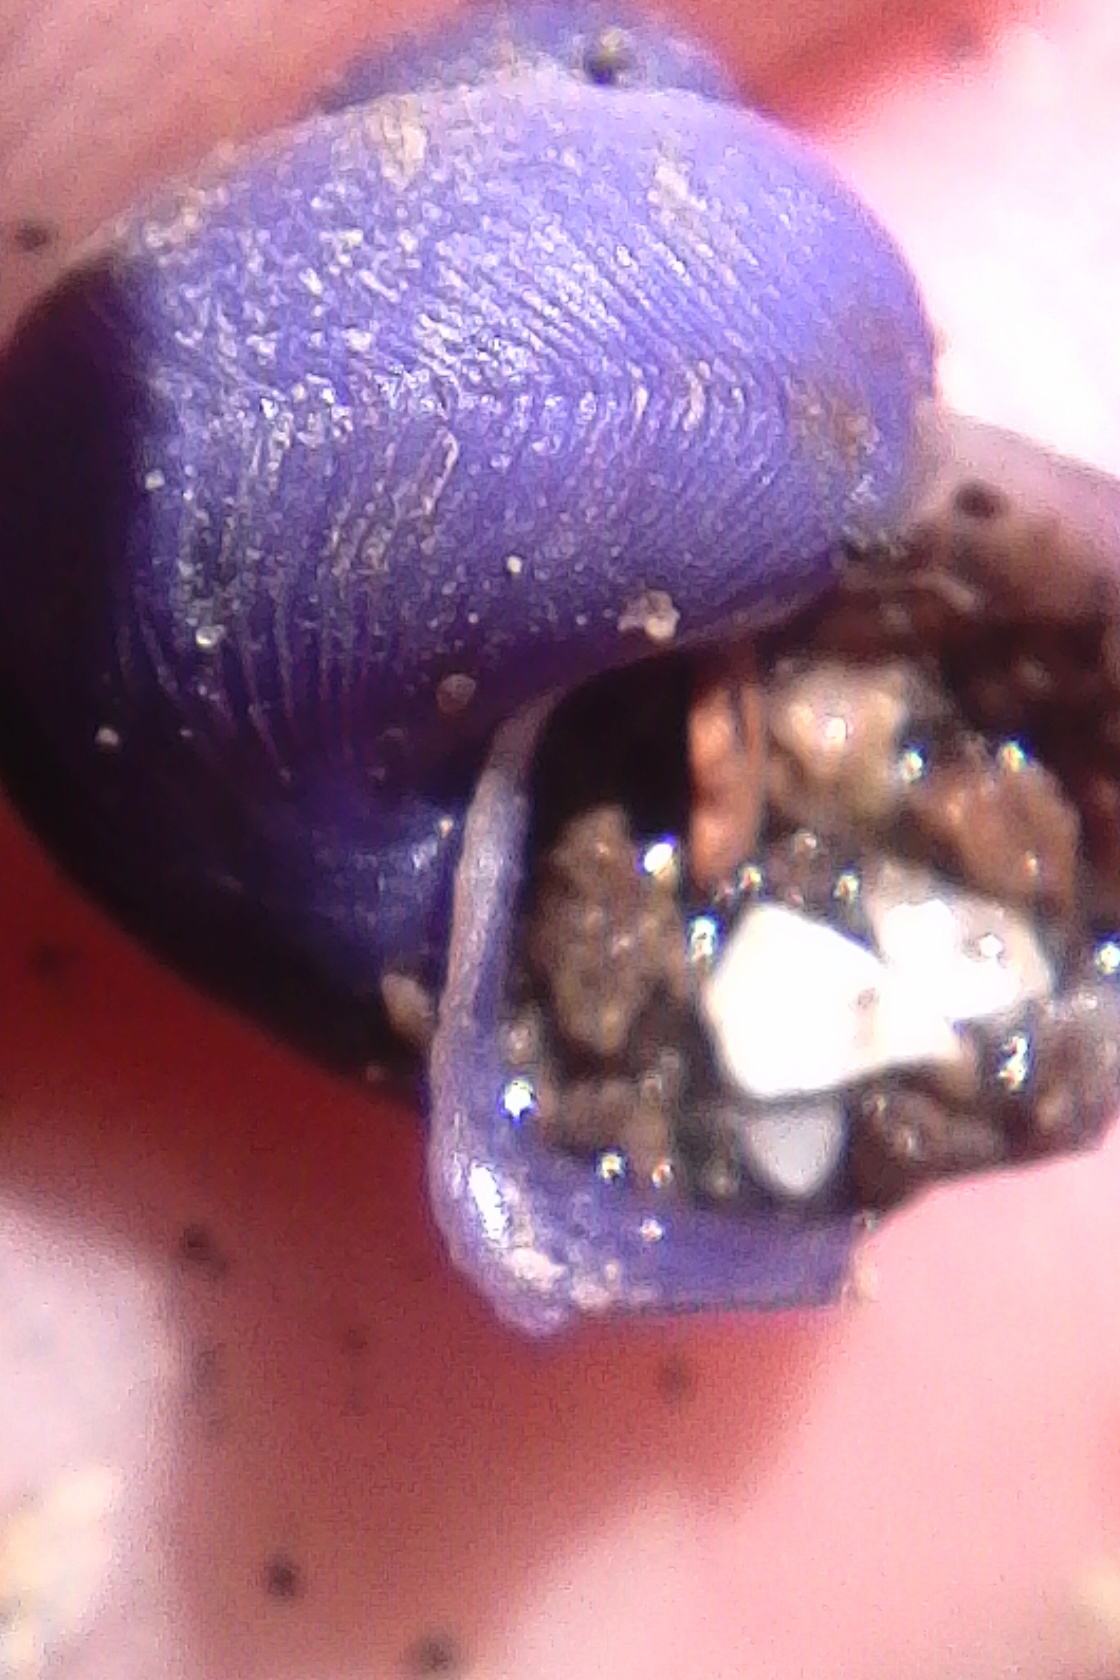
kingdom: Animalia
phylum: Mollusca
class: Gastropoda
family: Epitoniidae
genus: Janthina
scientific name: Janthina exigua
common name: Dwarf janthina
